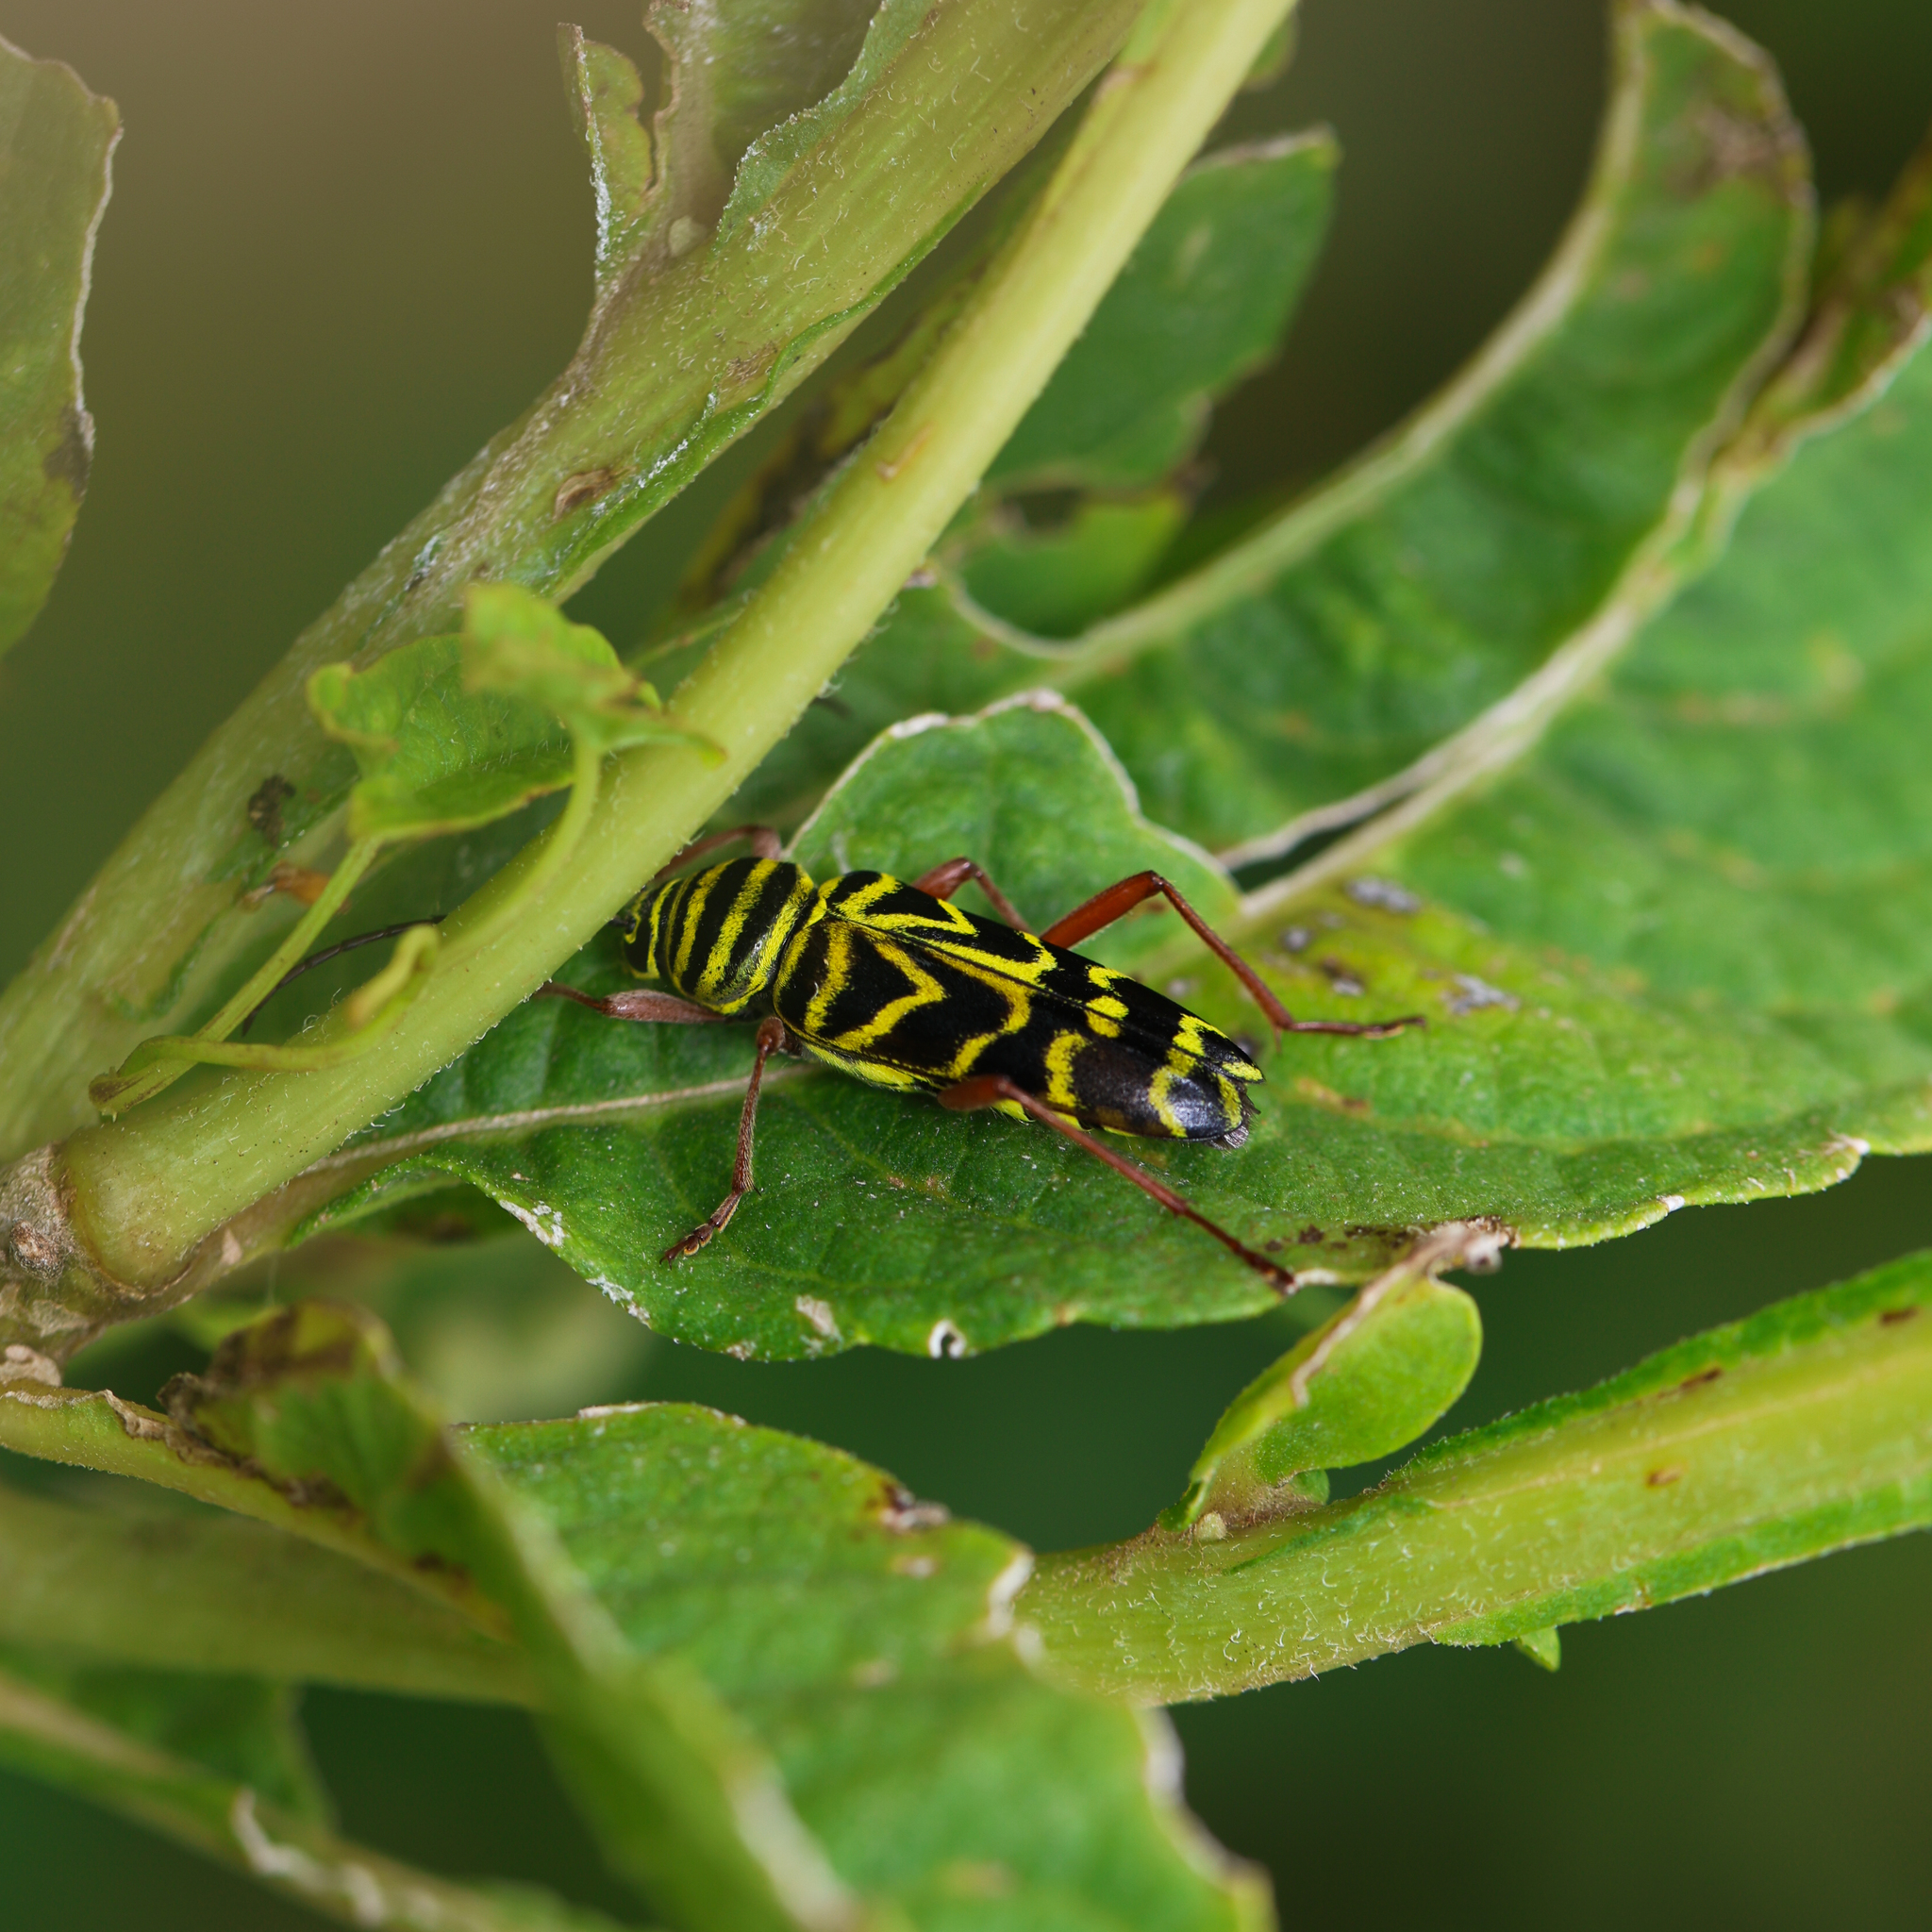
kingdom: Animalia
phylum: Arthropoda
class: Insecta
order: Coleoptera
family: Cerambycidae
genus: Megacyllene
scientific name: Megacyllene robiniae
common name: Locust borer
